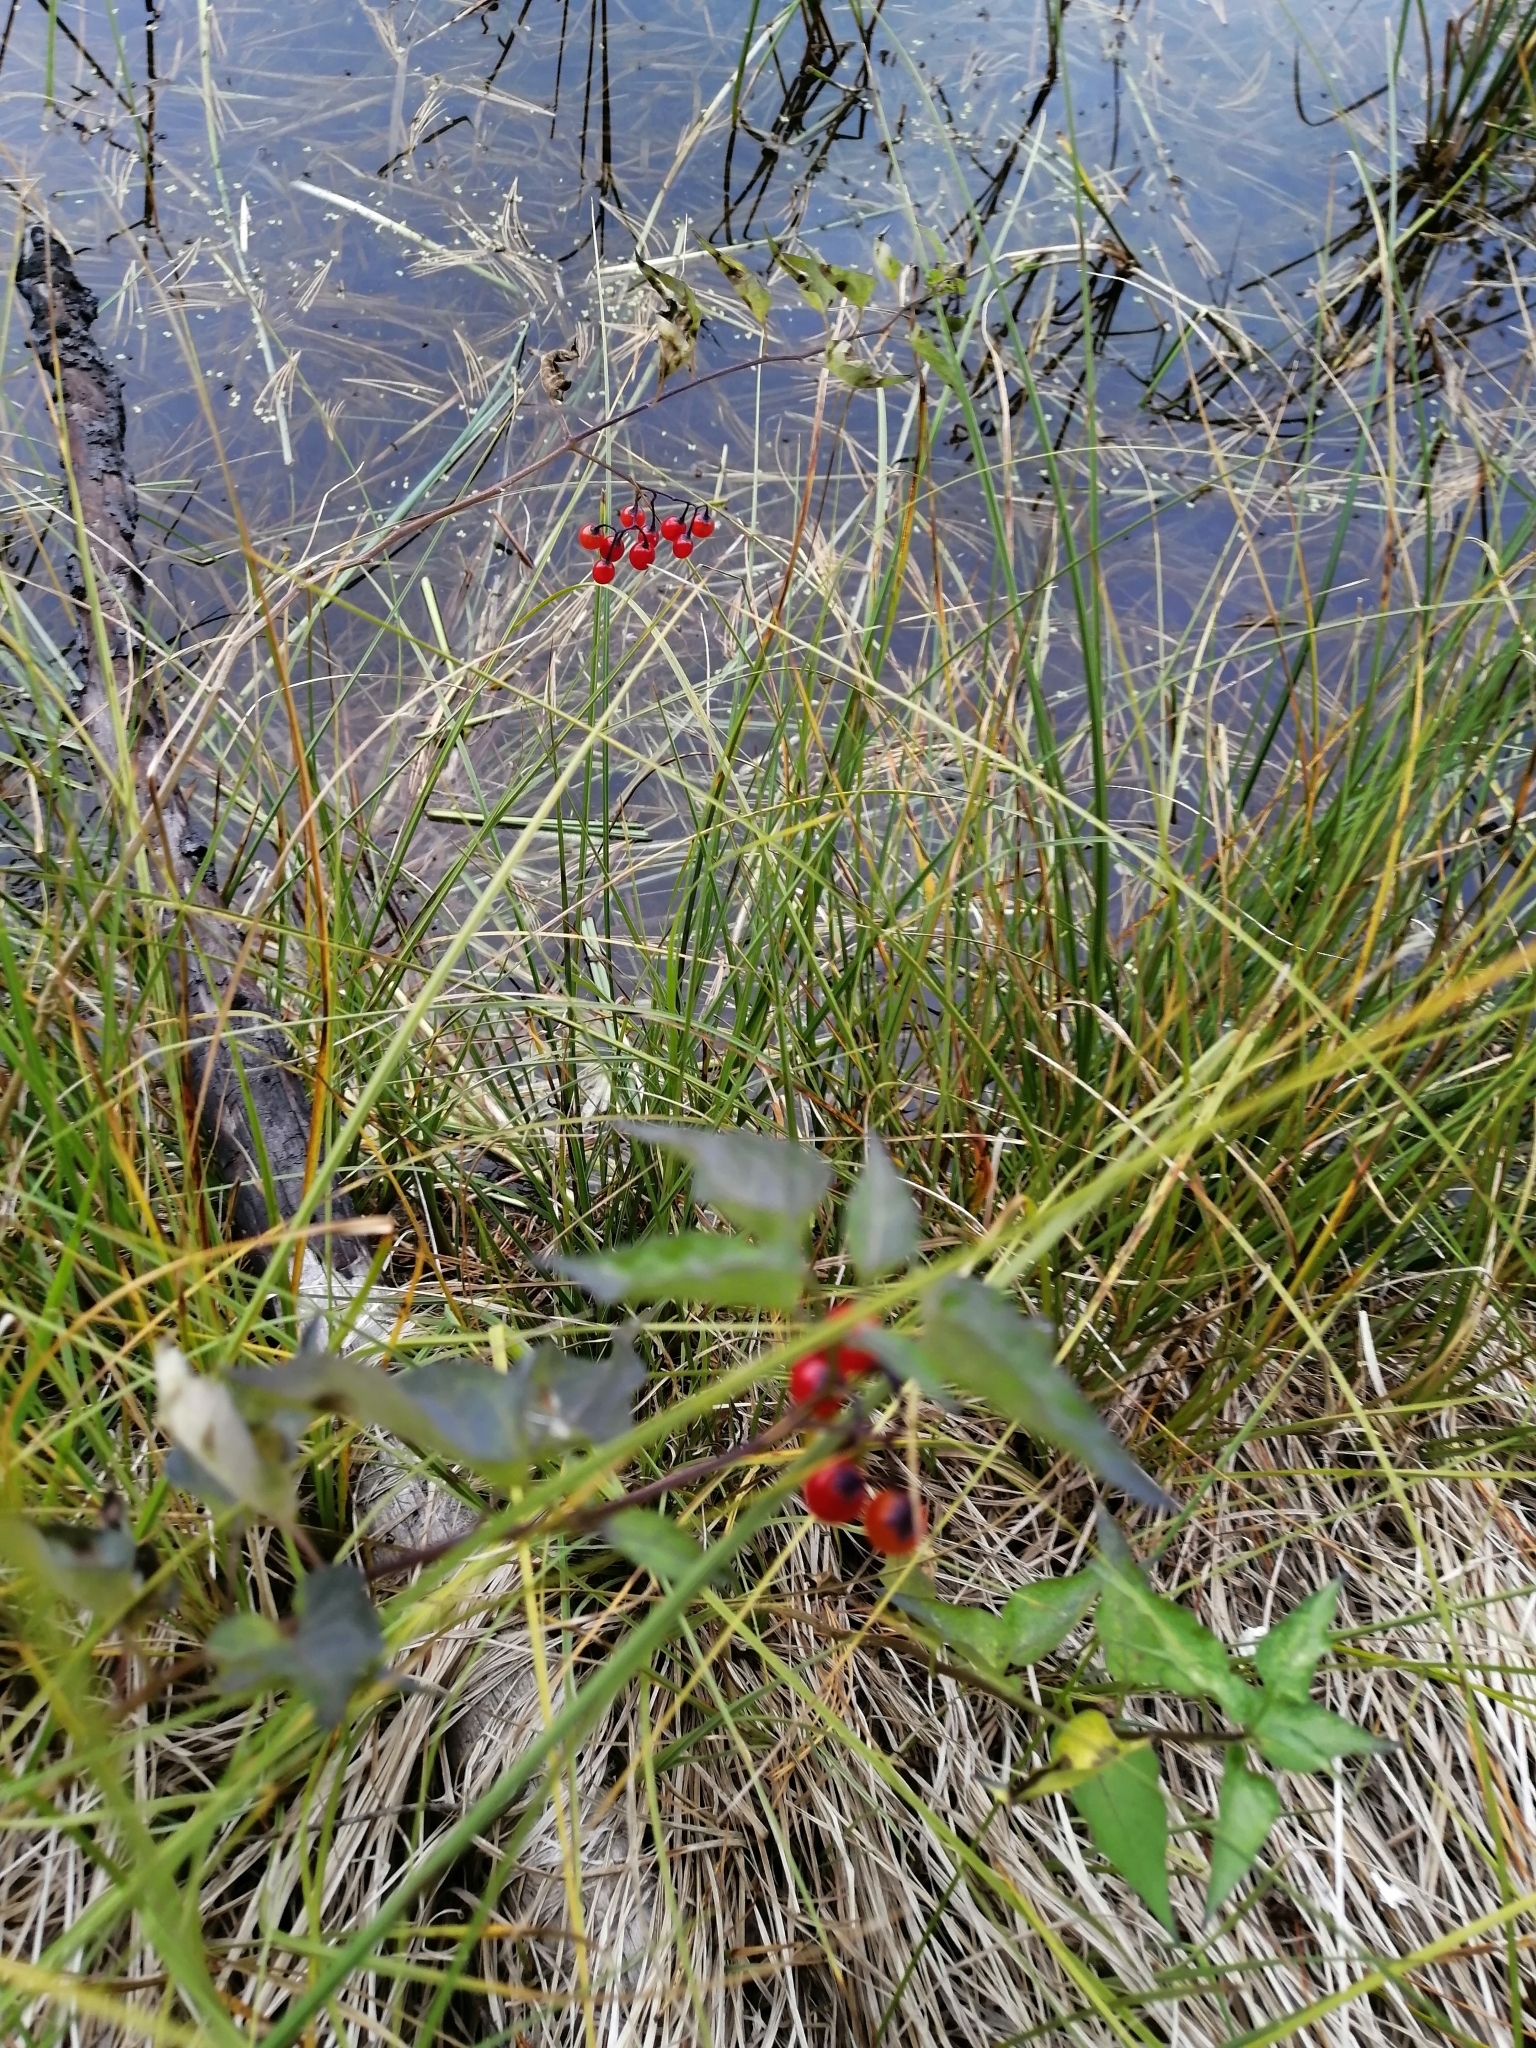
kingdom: Plantae
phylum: Tracheophyta
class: Magnoliopsida
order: Solanales
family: Solanaceae
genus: Solanum
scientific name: Solanum dulcamara
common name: Climbing nightshade
